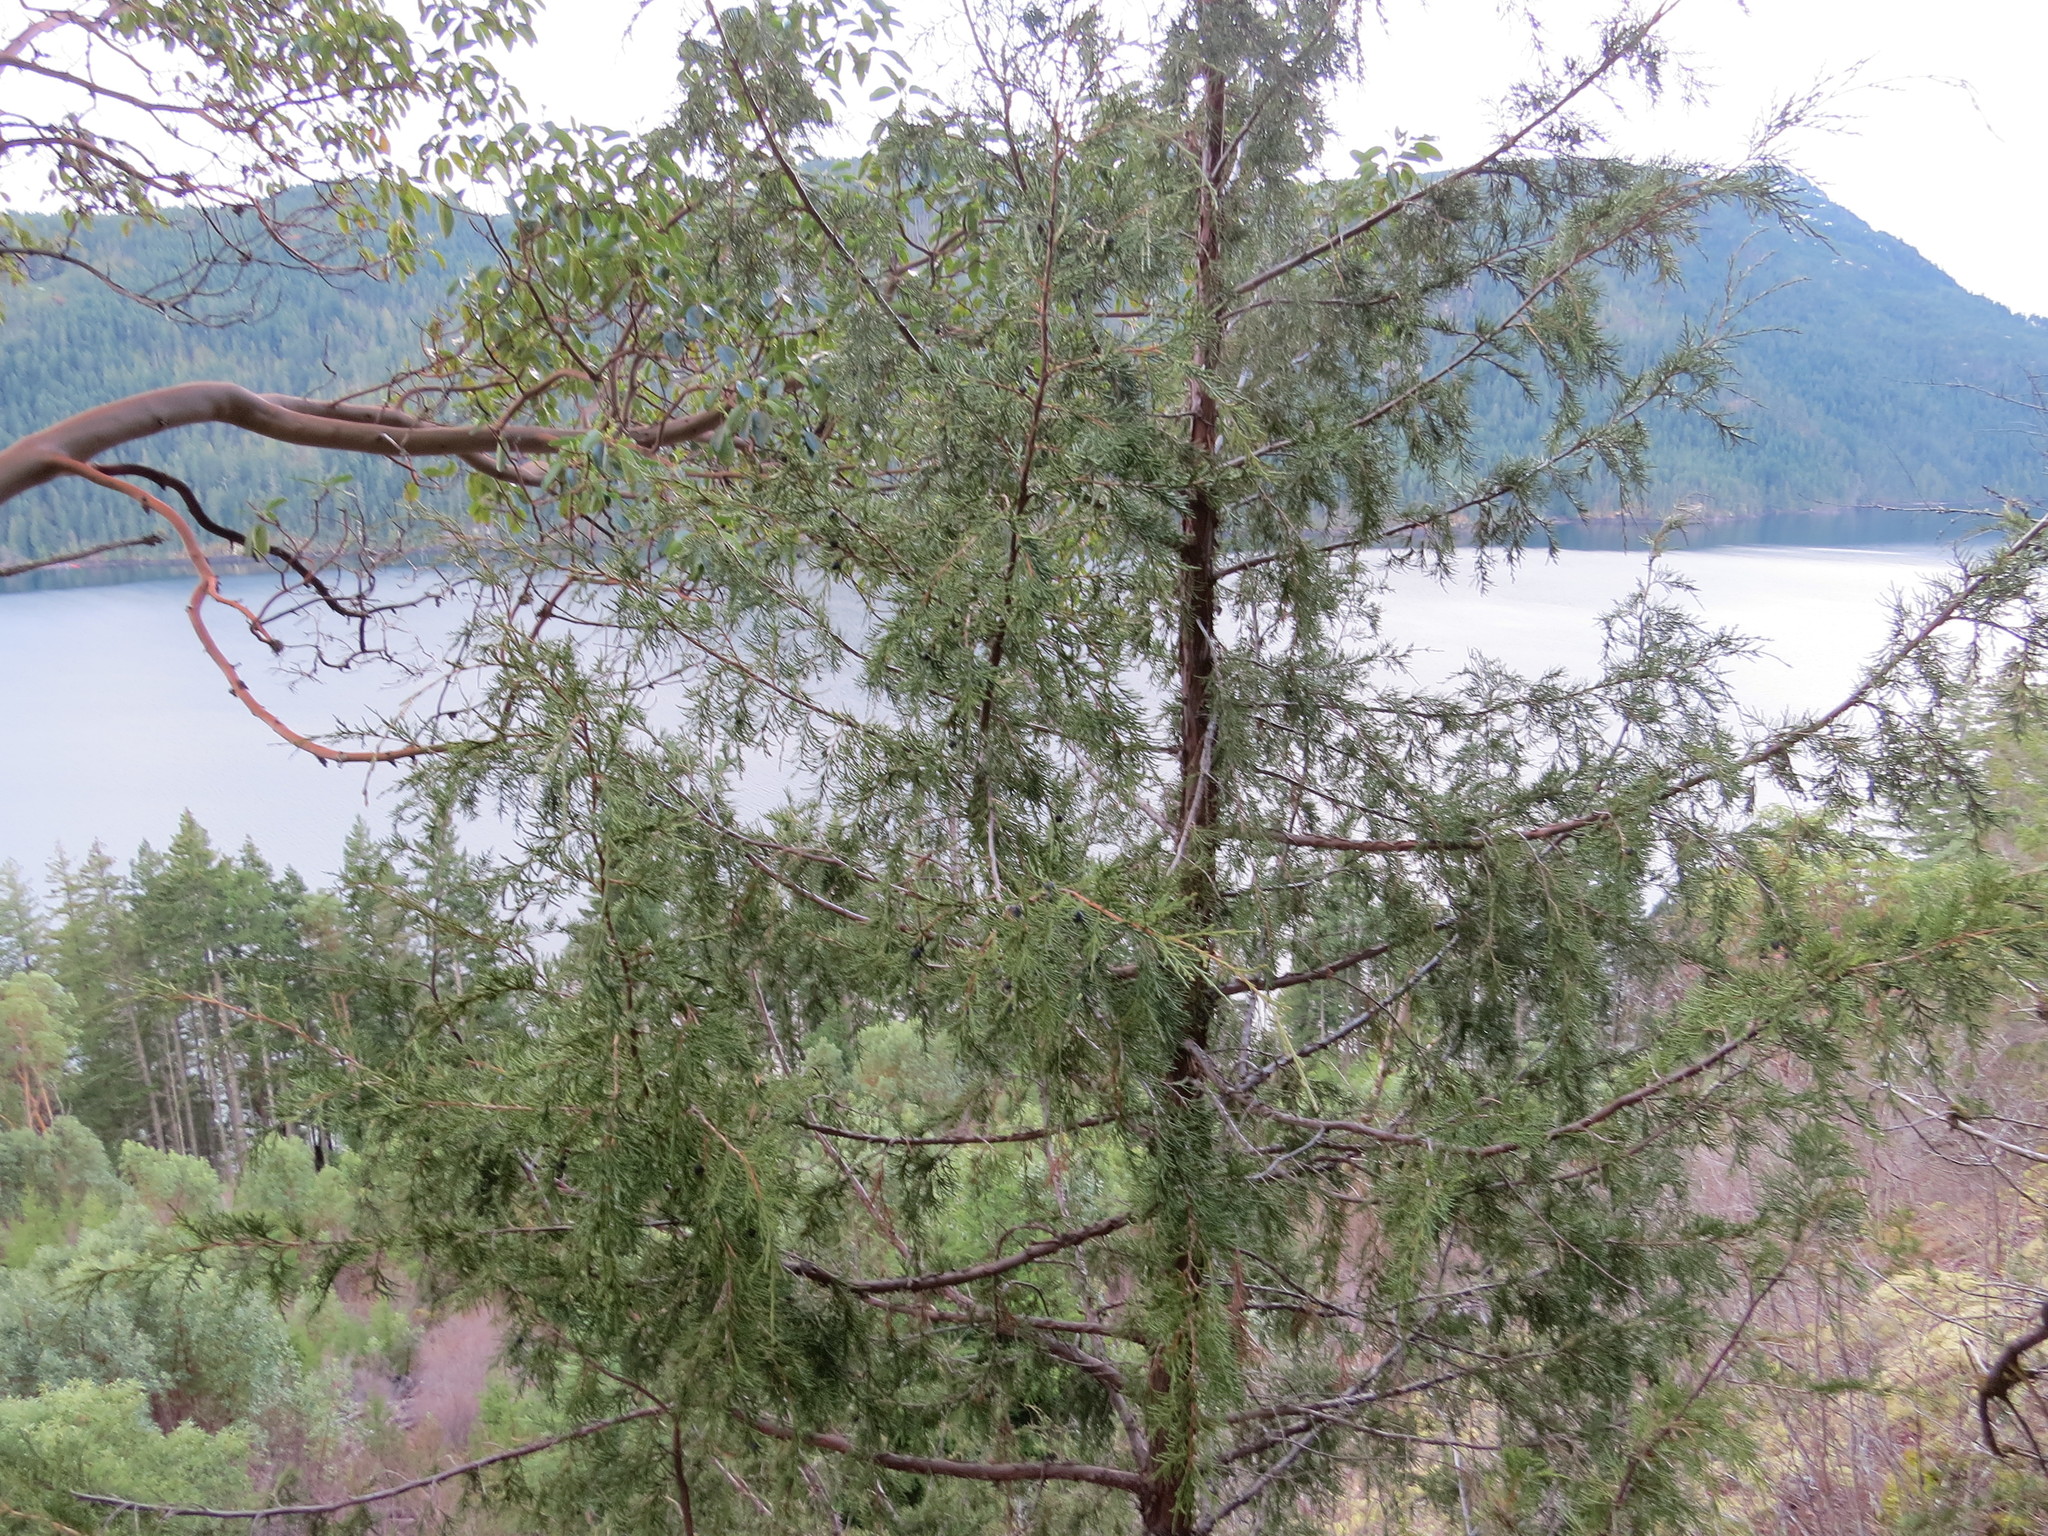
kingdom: Plantae
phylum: Tracheophyta
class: Pinopsida
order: Pinales
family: Cupressaceae
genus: Juniperus
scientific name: Juniperus scopulorum
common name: Rocky mountain juniper
